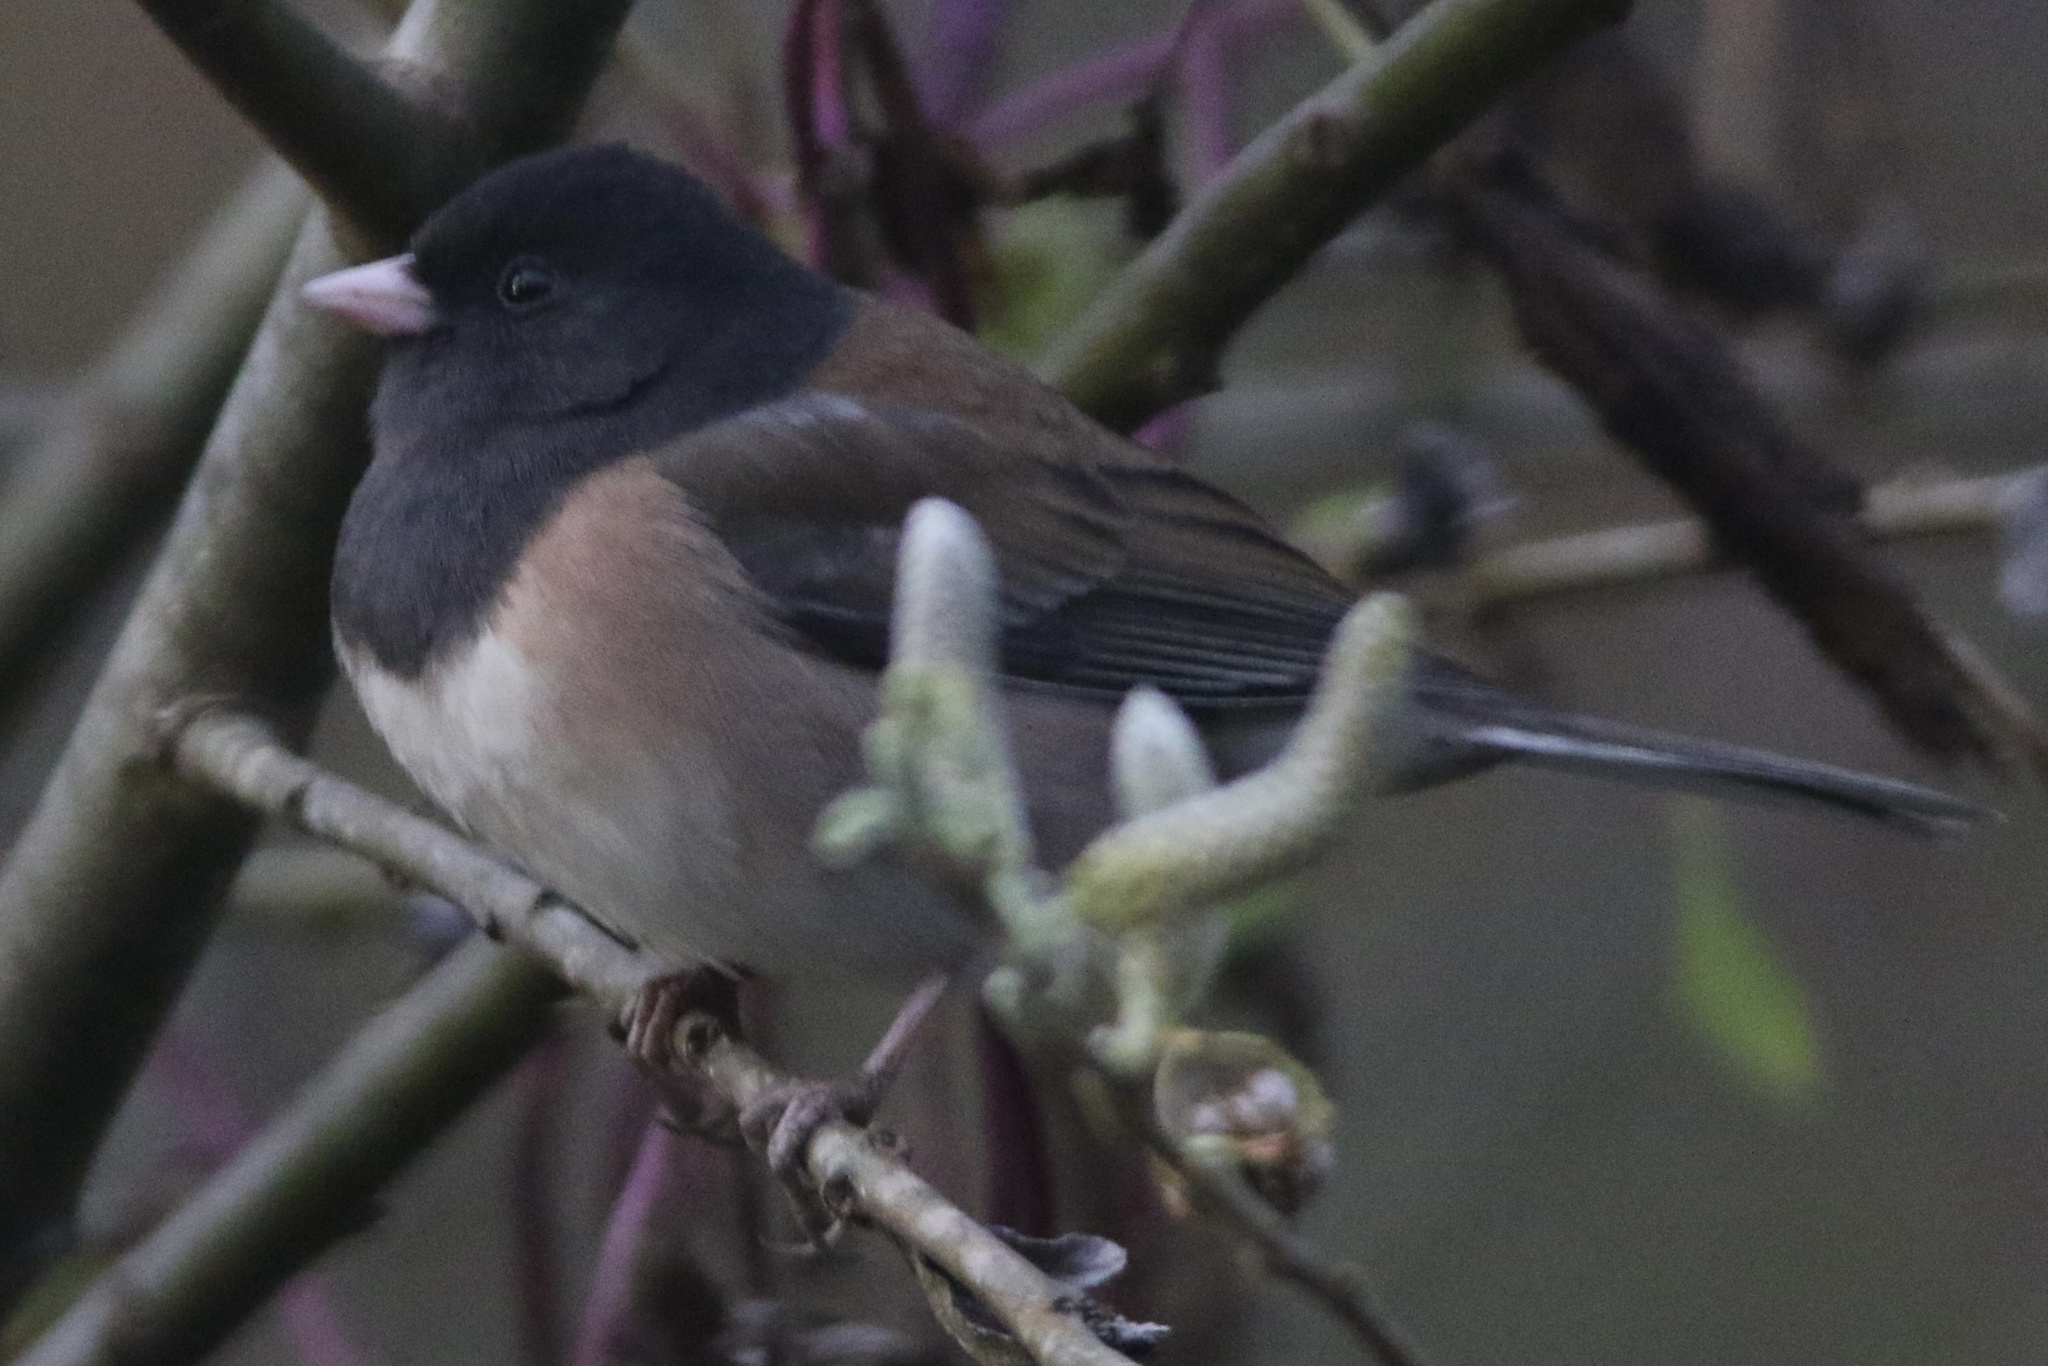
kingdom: Animalia
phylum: Chordata
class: Aves
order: Passeriformes
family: Passerellidae
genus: Junco
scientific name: Junco hyemalis
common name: Dark-eyed junco
